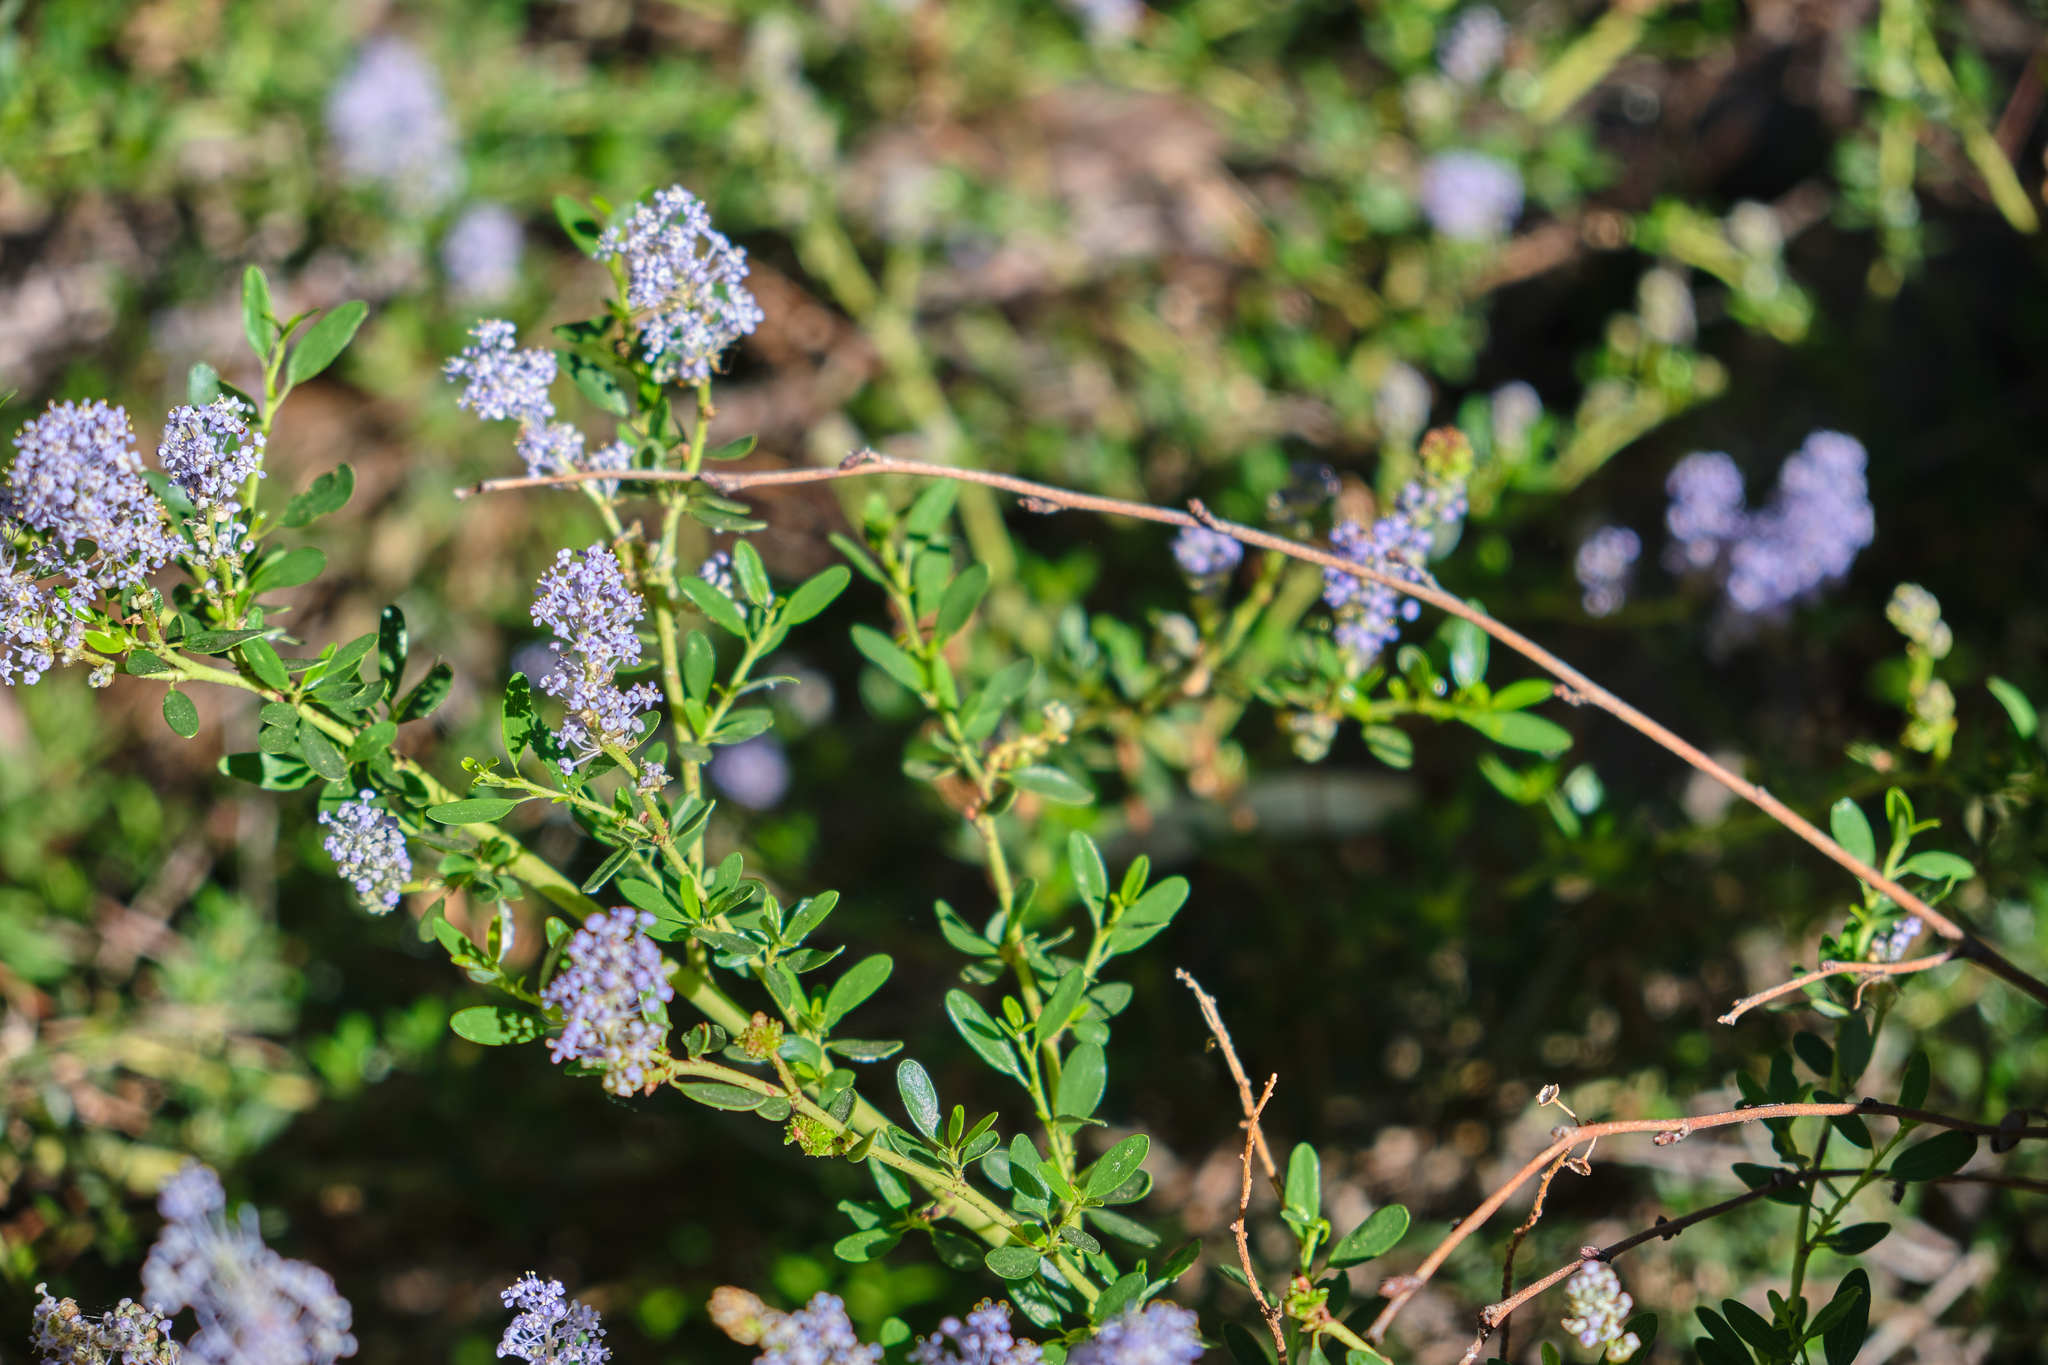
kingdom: Plantae
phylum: Tracheophyta
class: Magnoliopsida
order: Rosales
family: Rhamnaceae
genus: Ceanothus
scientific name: Ceanothus parvifolius
